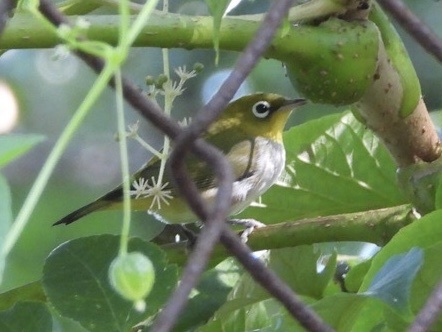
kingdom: Animalia
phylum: Chordata
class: Aves
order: Passeriformes
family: Zosteropidae
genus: Zosterops
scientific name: Zosterops erythropleurus
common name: Chestnut-flanked white-eye
